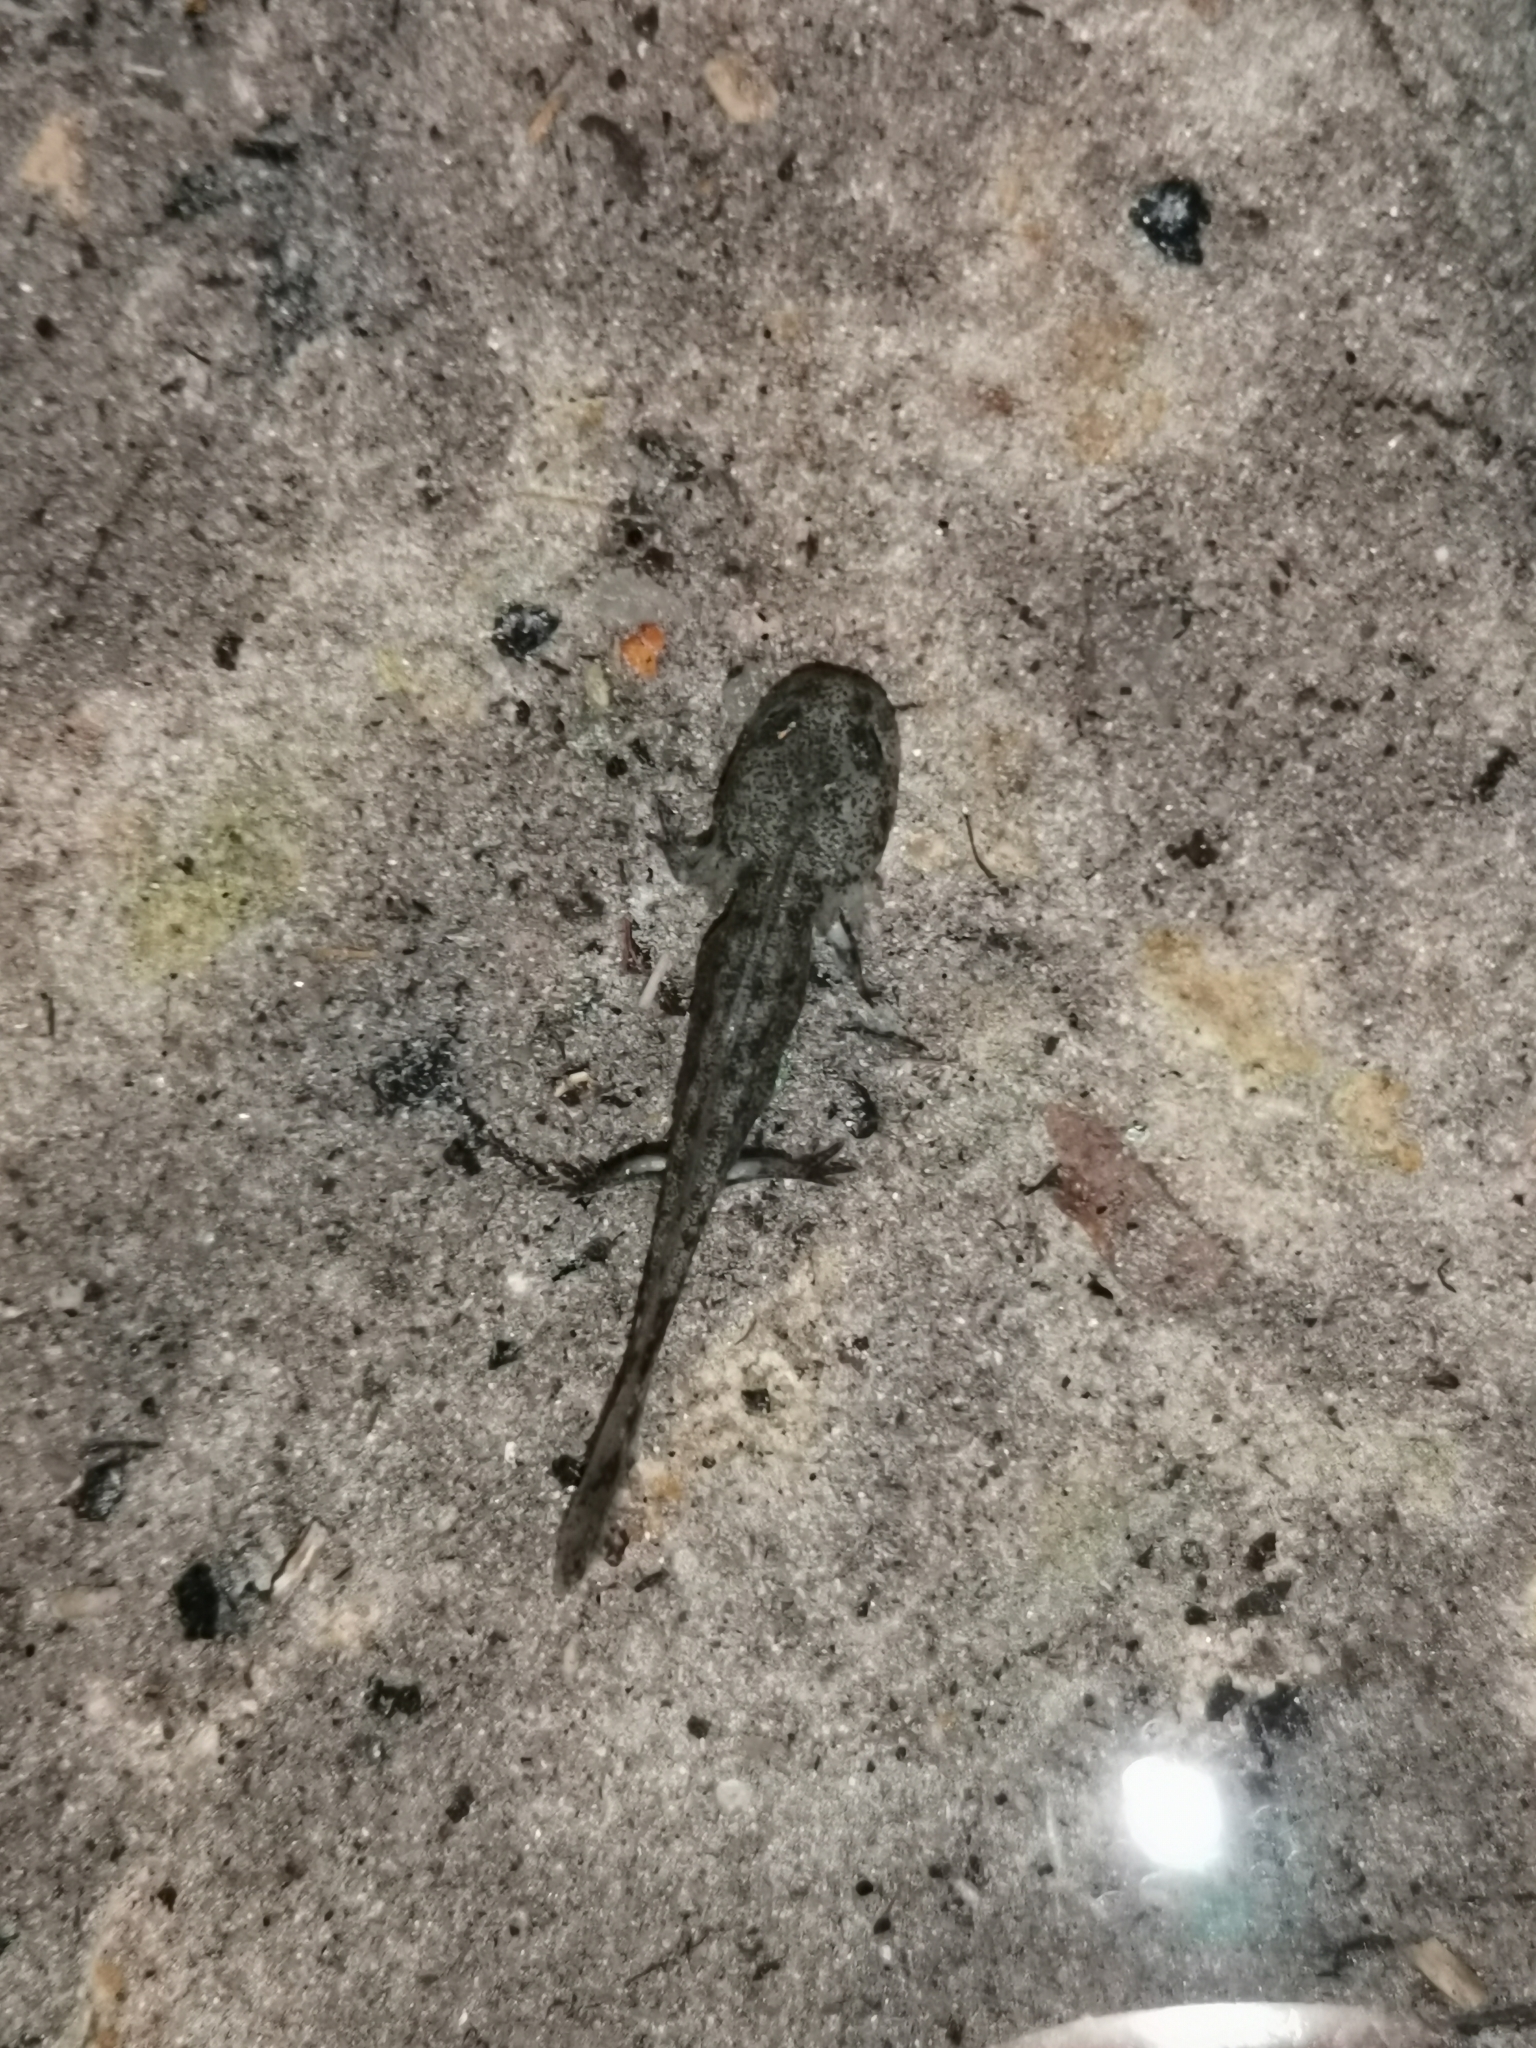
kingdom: Animalia
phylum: Chordata
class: Amphibia
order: Caudata
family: Salamandridae
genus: Salamandra
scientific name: Salamandra salamandra
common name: Fire salamander
